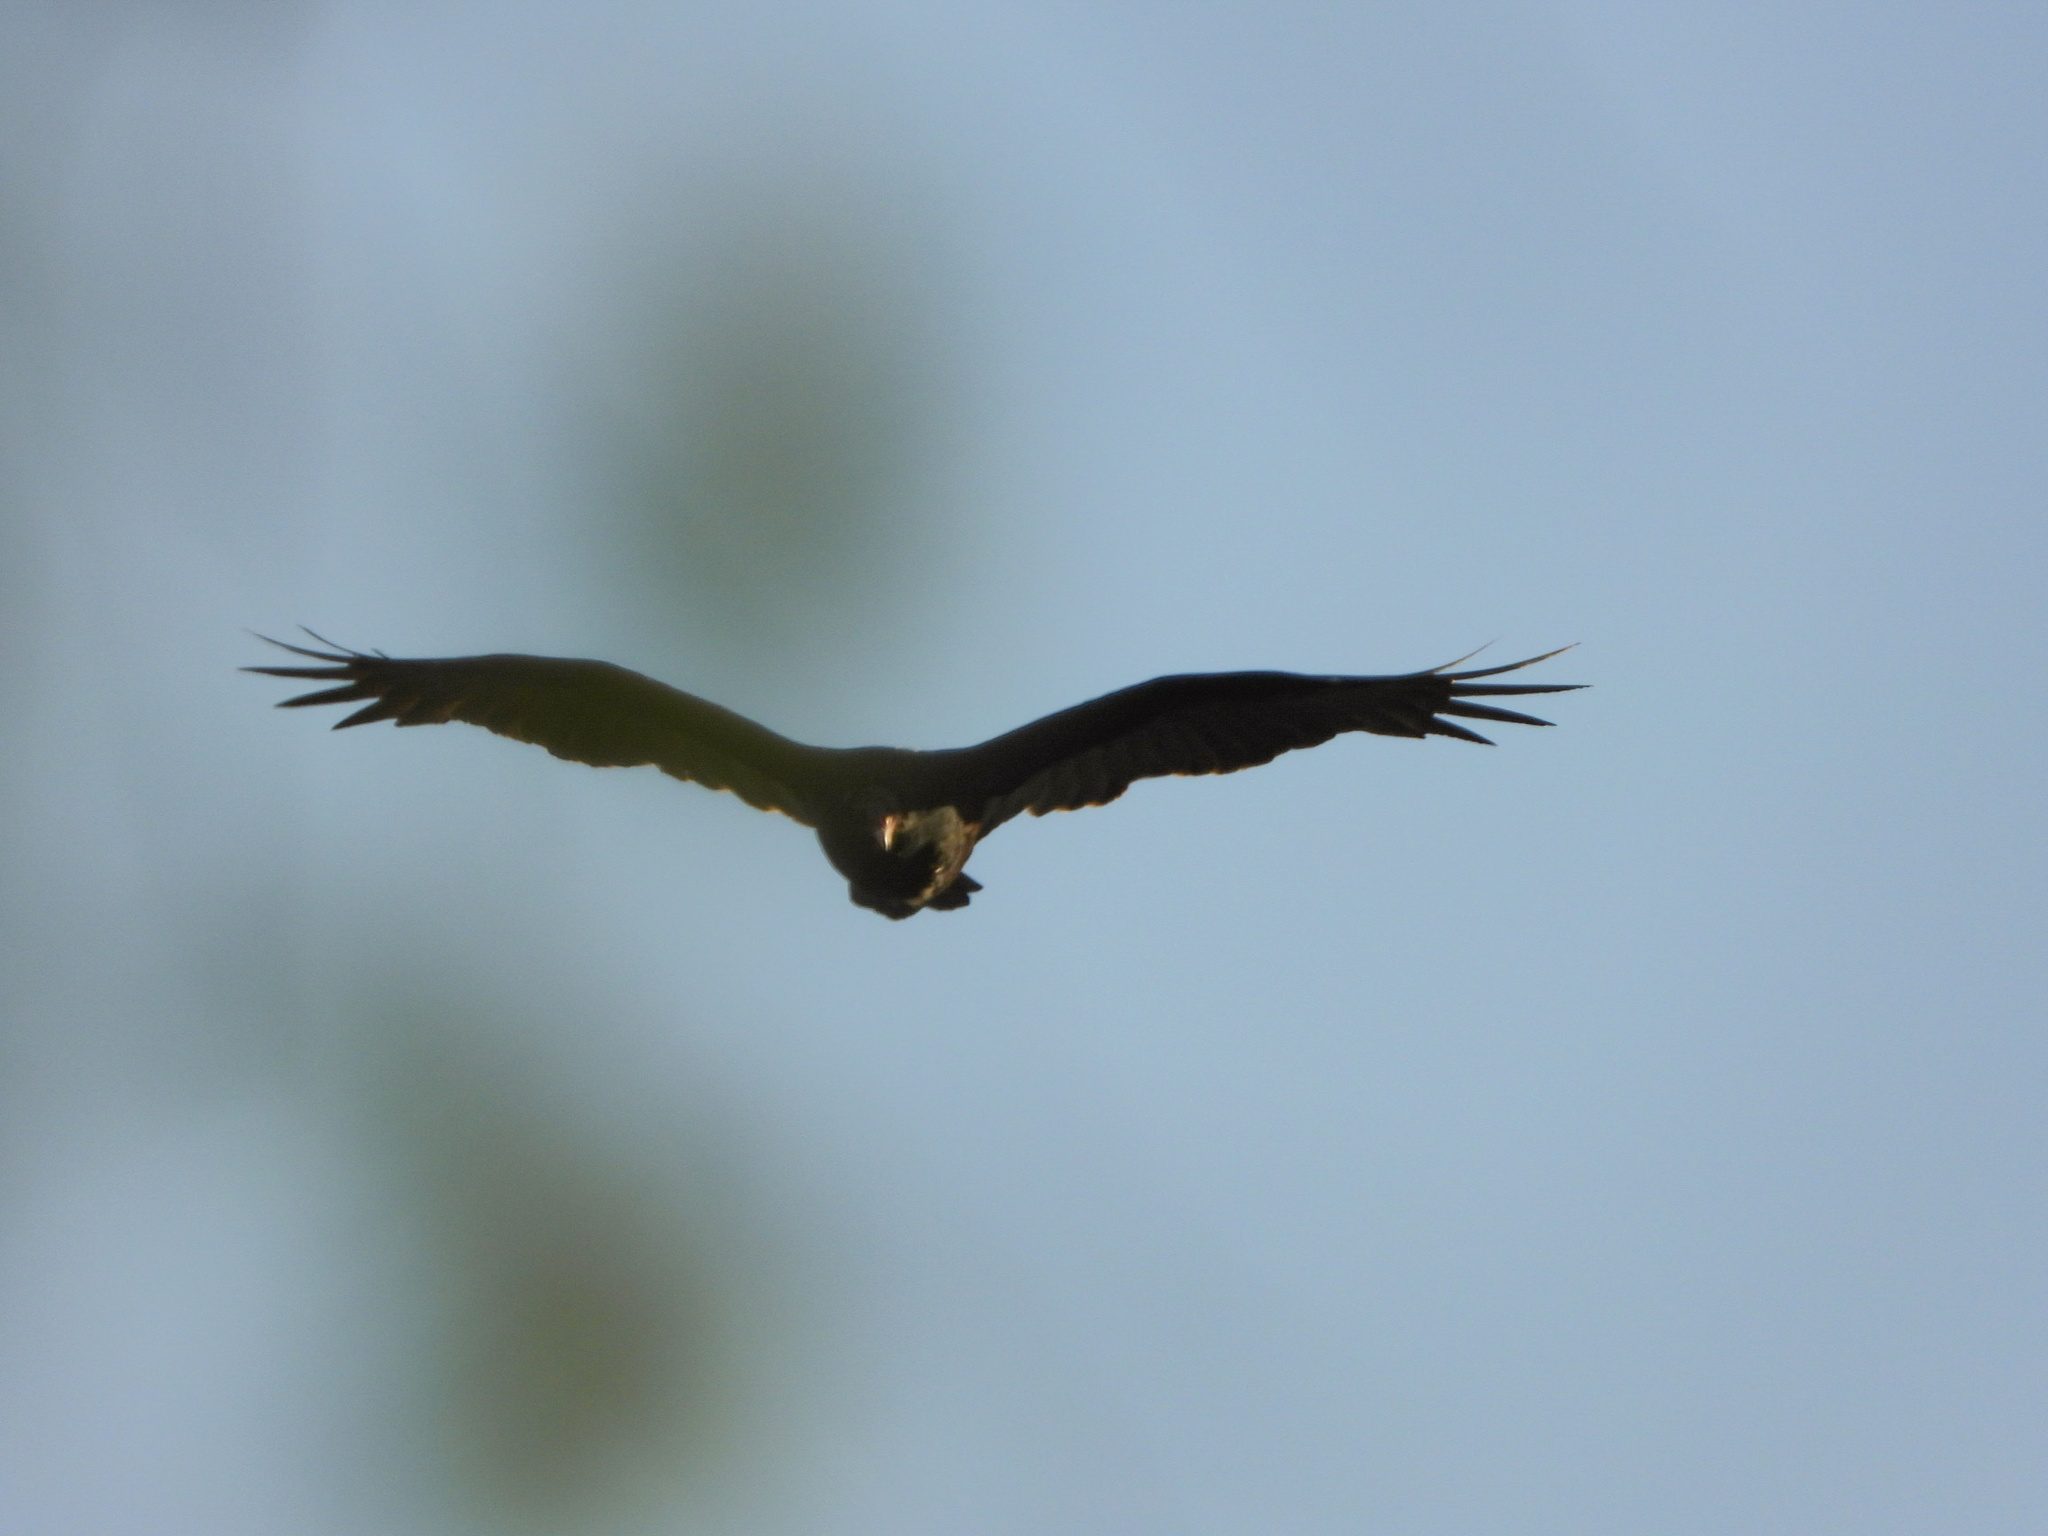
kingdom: Animalia
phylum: Chordata
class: Aves
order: Accipitriformes
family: Cathartidae
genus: Cathartes
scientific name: Cathartes aura
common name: Turkey vulture
